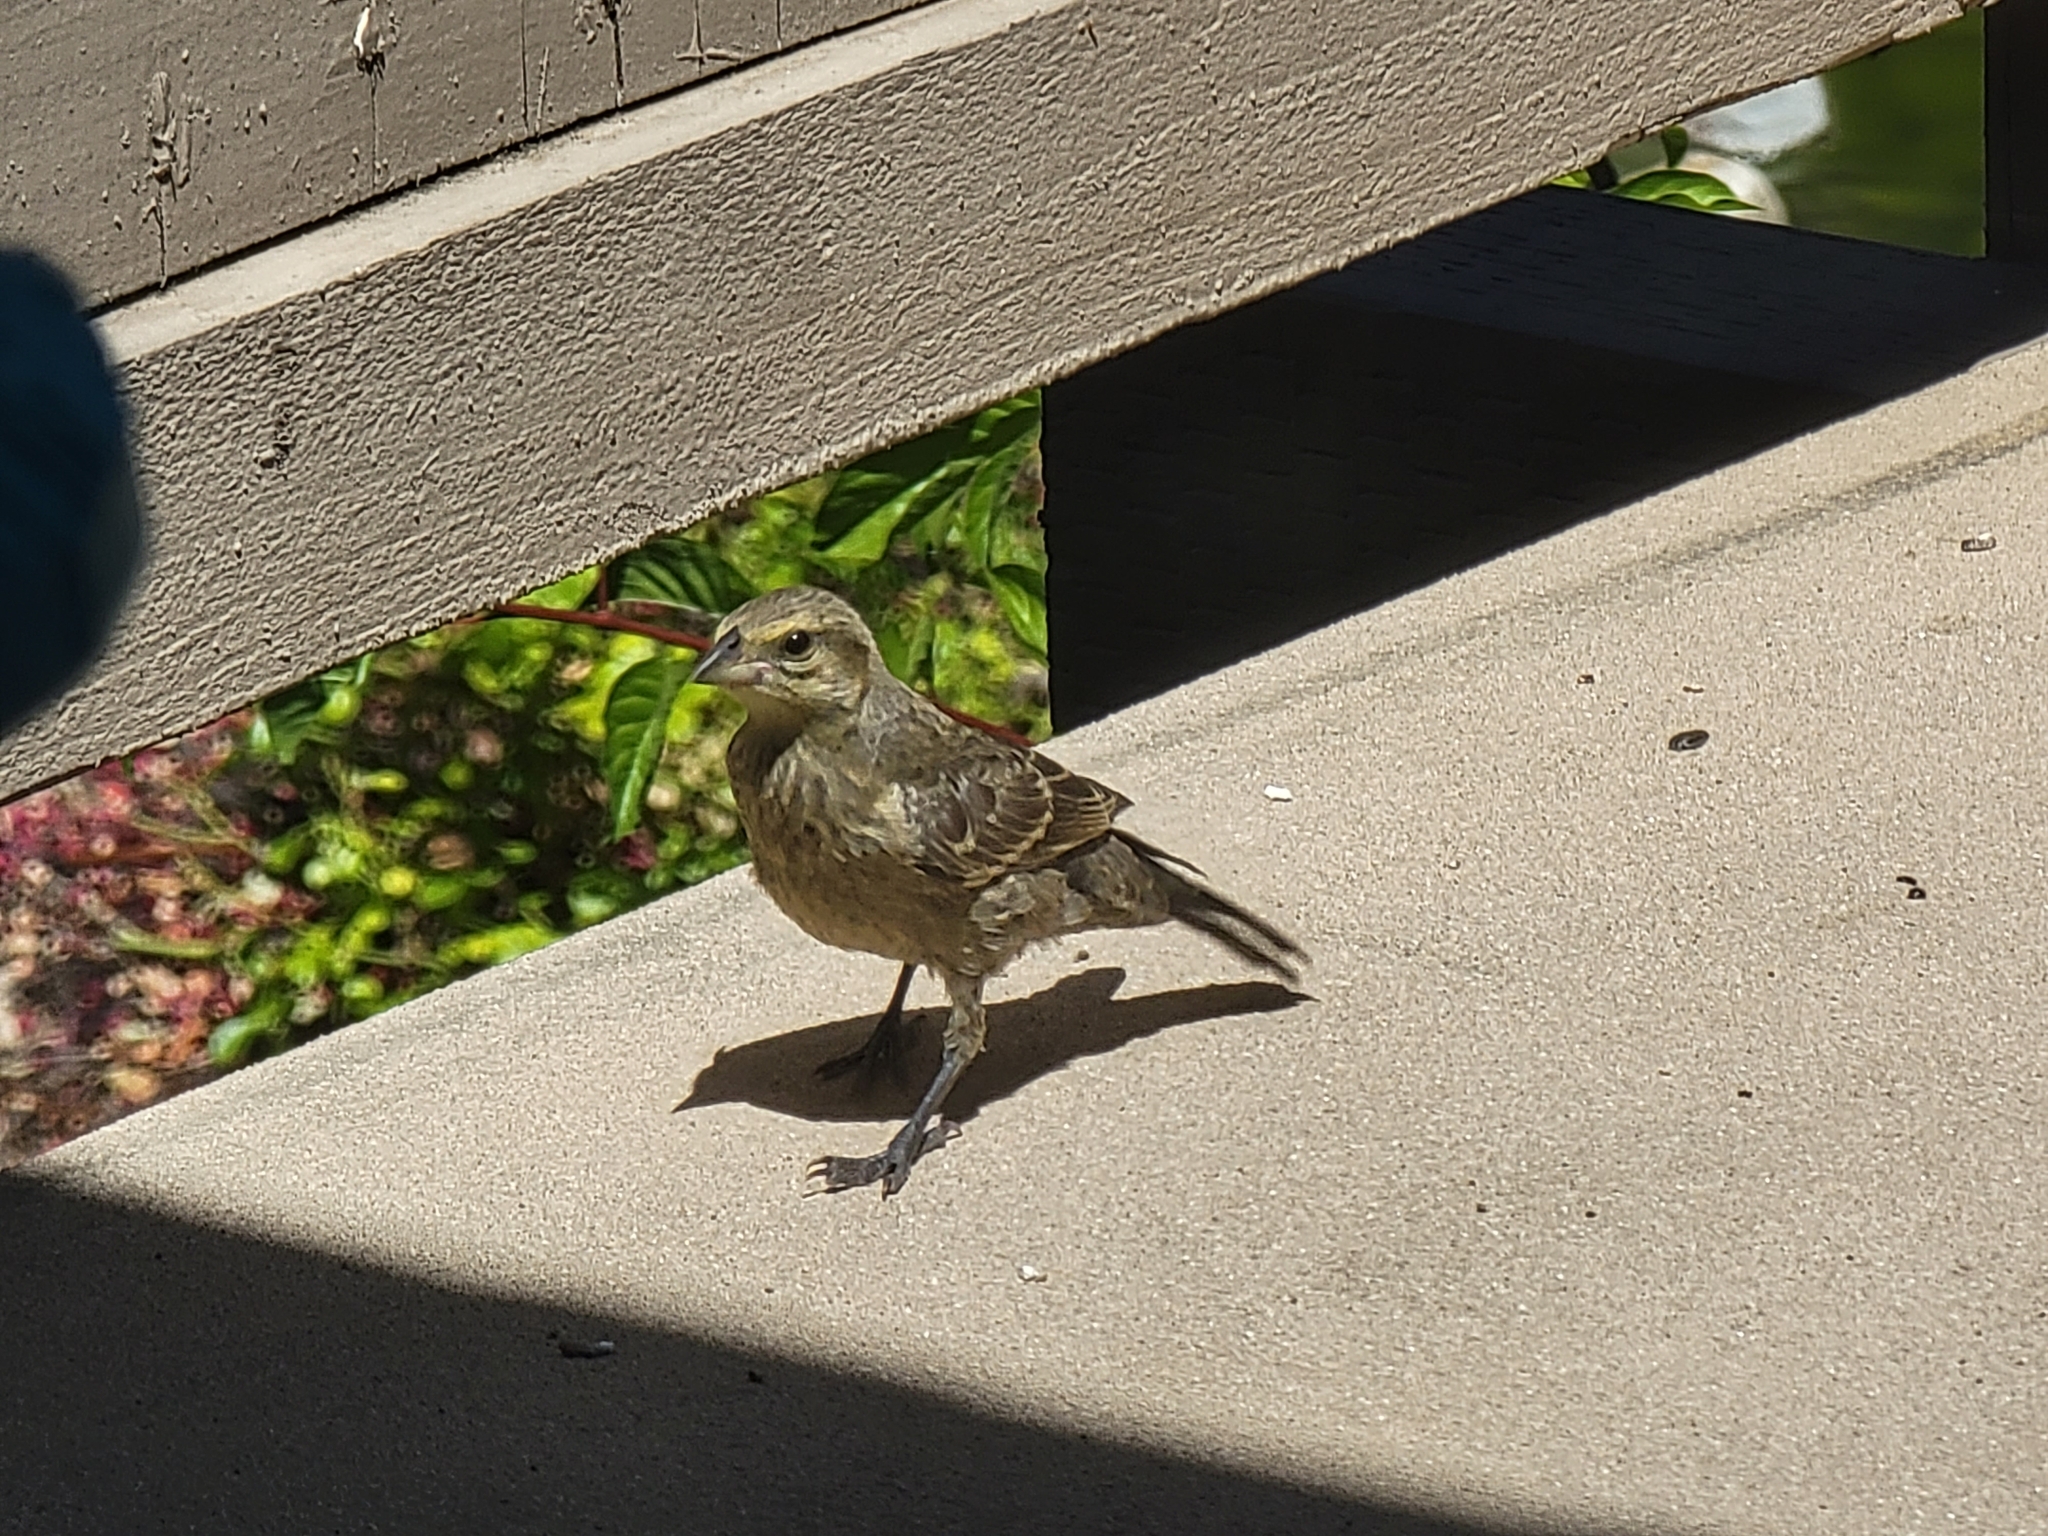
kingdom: Animalia
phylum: Chordata
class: Aves
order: Passeriformes
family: Icteridae
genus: Molothrus
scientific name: Molothrus ater
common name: Brown-headed cowbird
